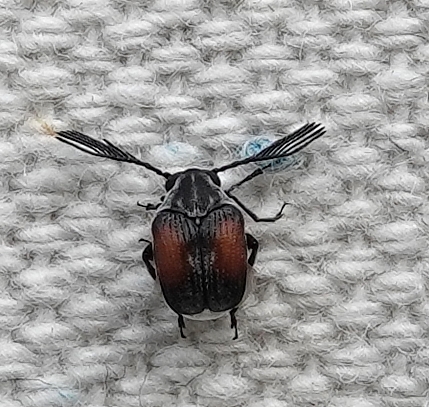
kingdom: Animalia
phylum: Arthropoda
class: Insecta
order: Coleoptera
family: Chrysomelidae
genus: Megacerus
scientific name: Megacerus discoidus
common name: Red megacerus
